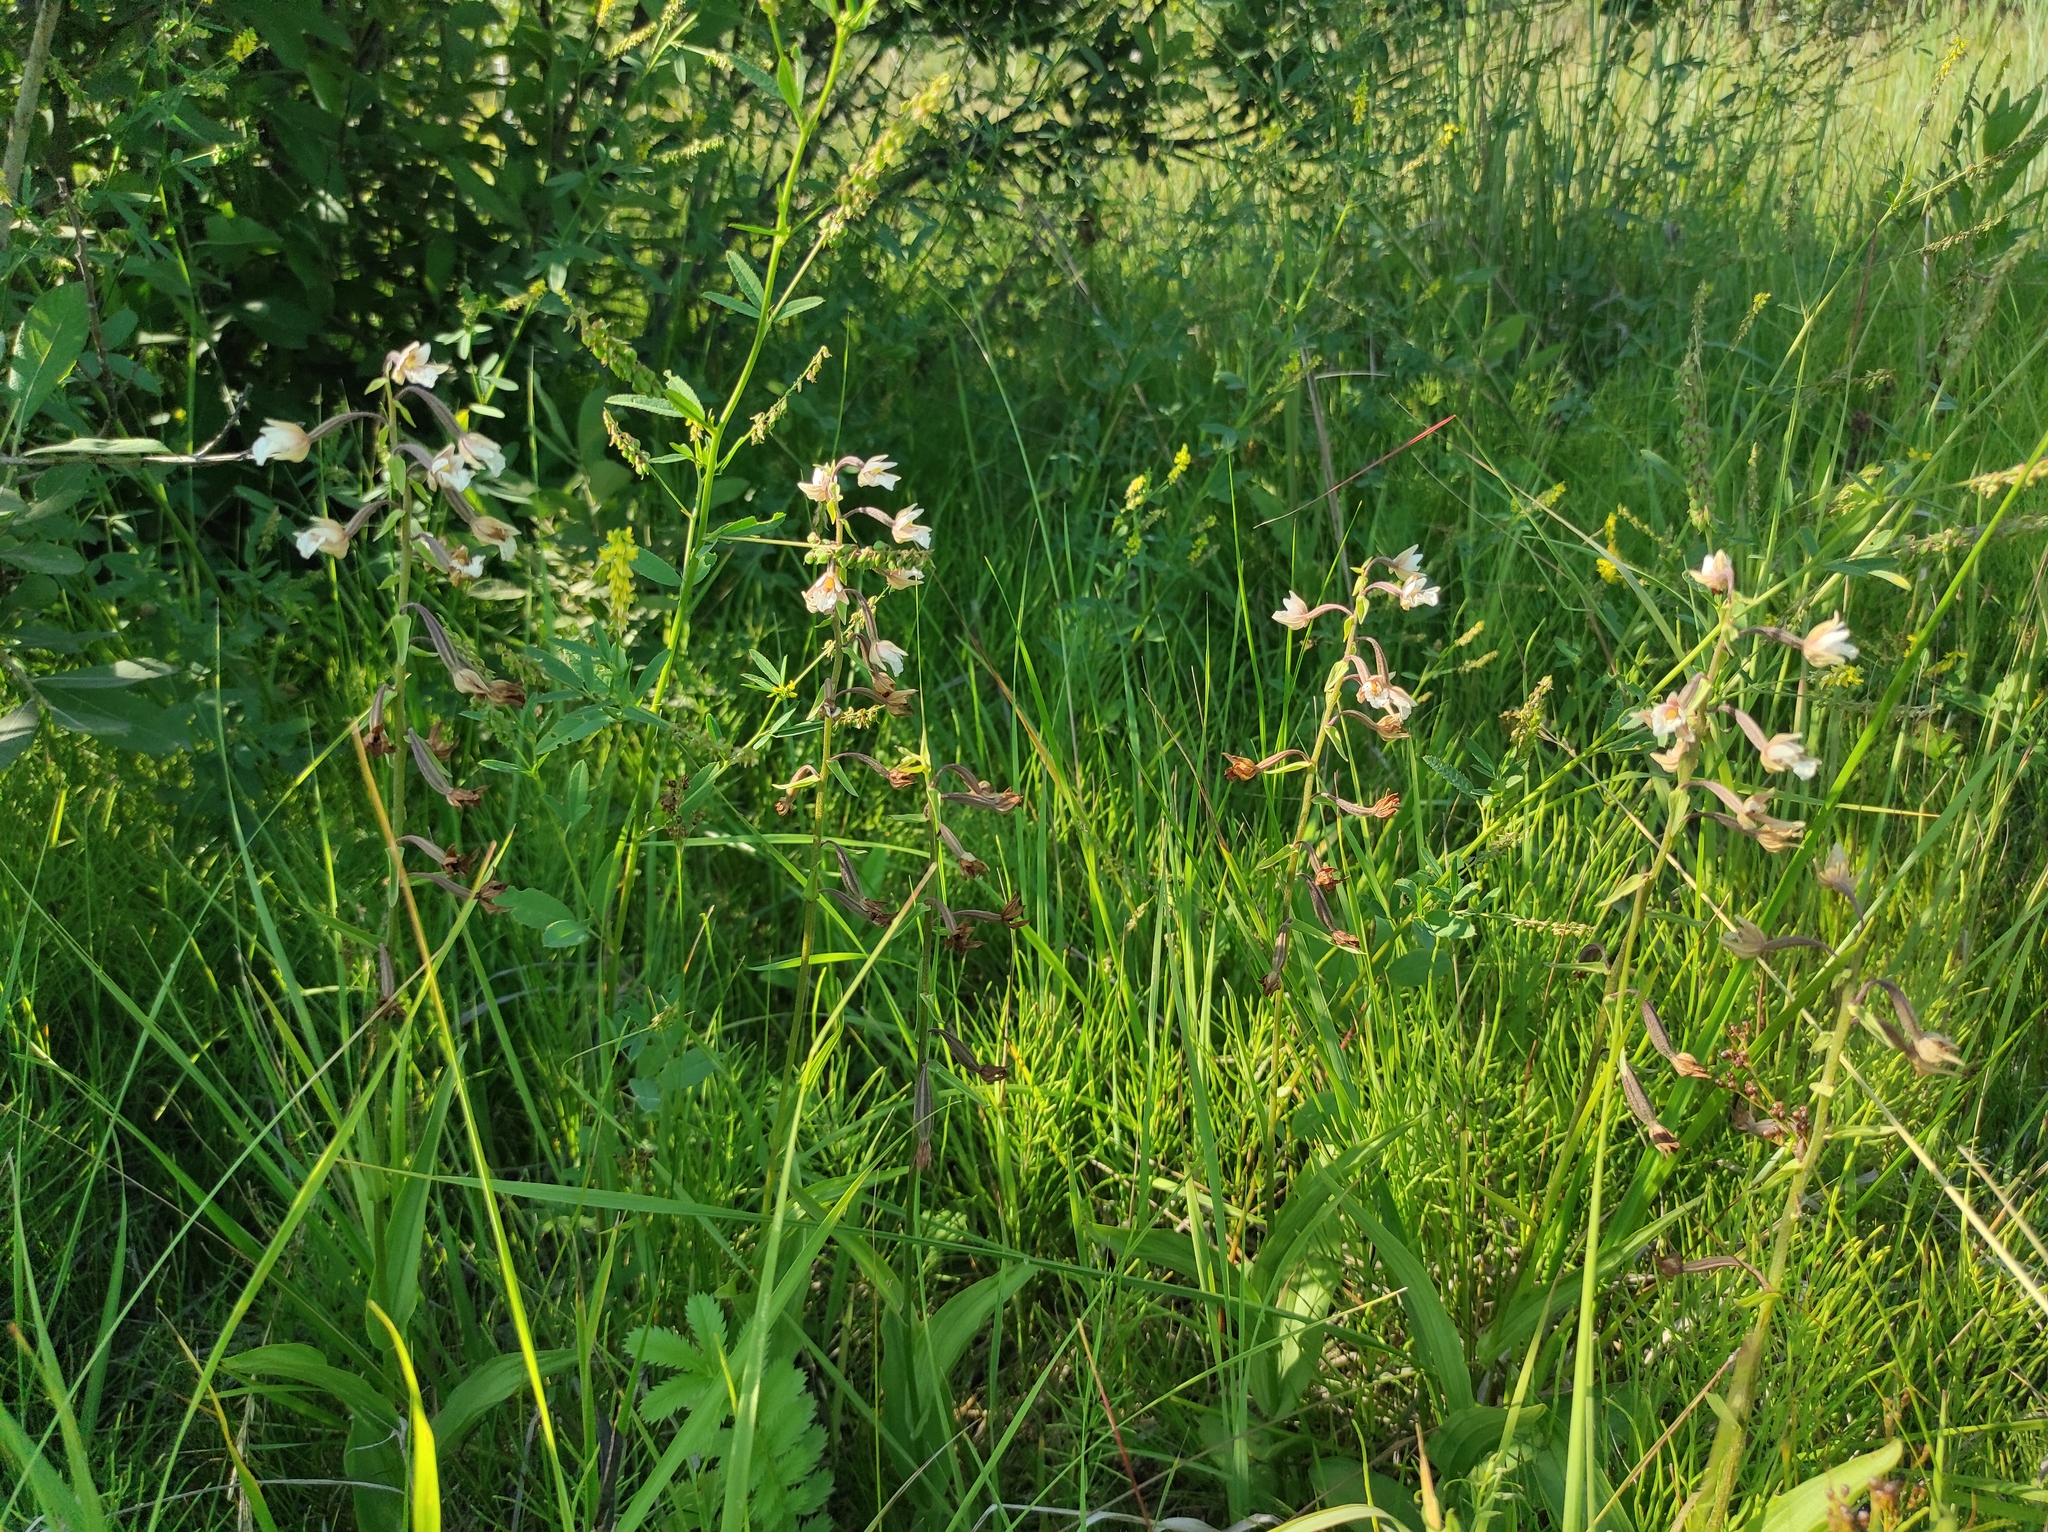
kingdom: Plantae
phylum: Tracheophyta
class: Liliopsida
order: Asparagales
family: Orchidaceae
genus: Epipactis
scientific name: Epipactis palustris
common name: Marsh helleborine
